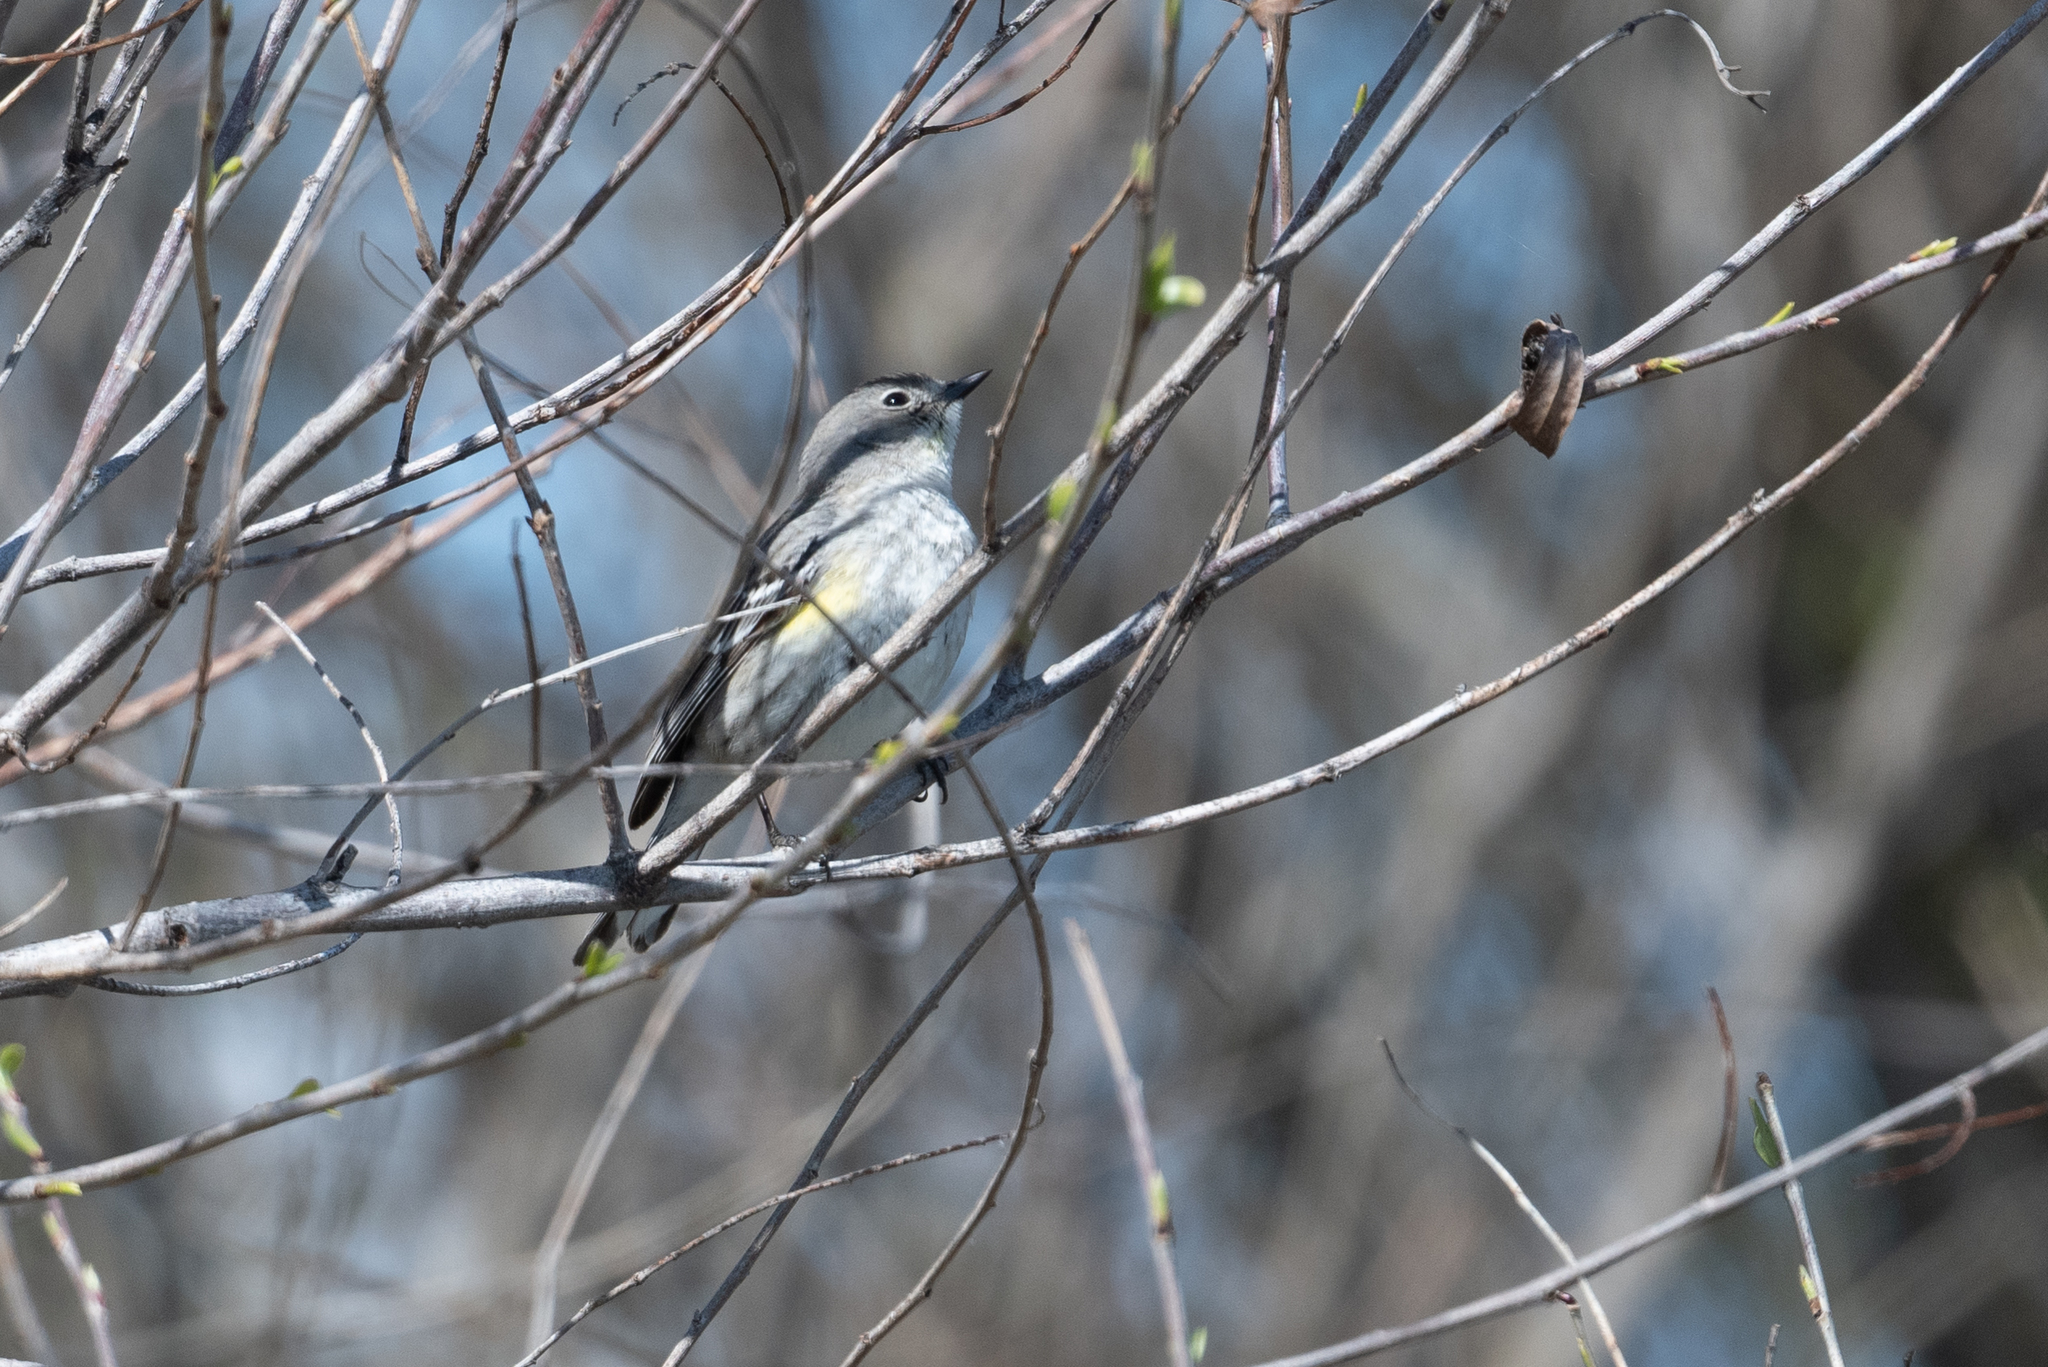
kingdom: Animalia
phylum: Chordata
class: Aves
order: Passeriformes
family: Parulidae
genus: Setophaga
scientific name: Setophaga coronata
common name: Myrtle warbler
